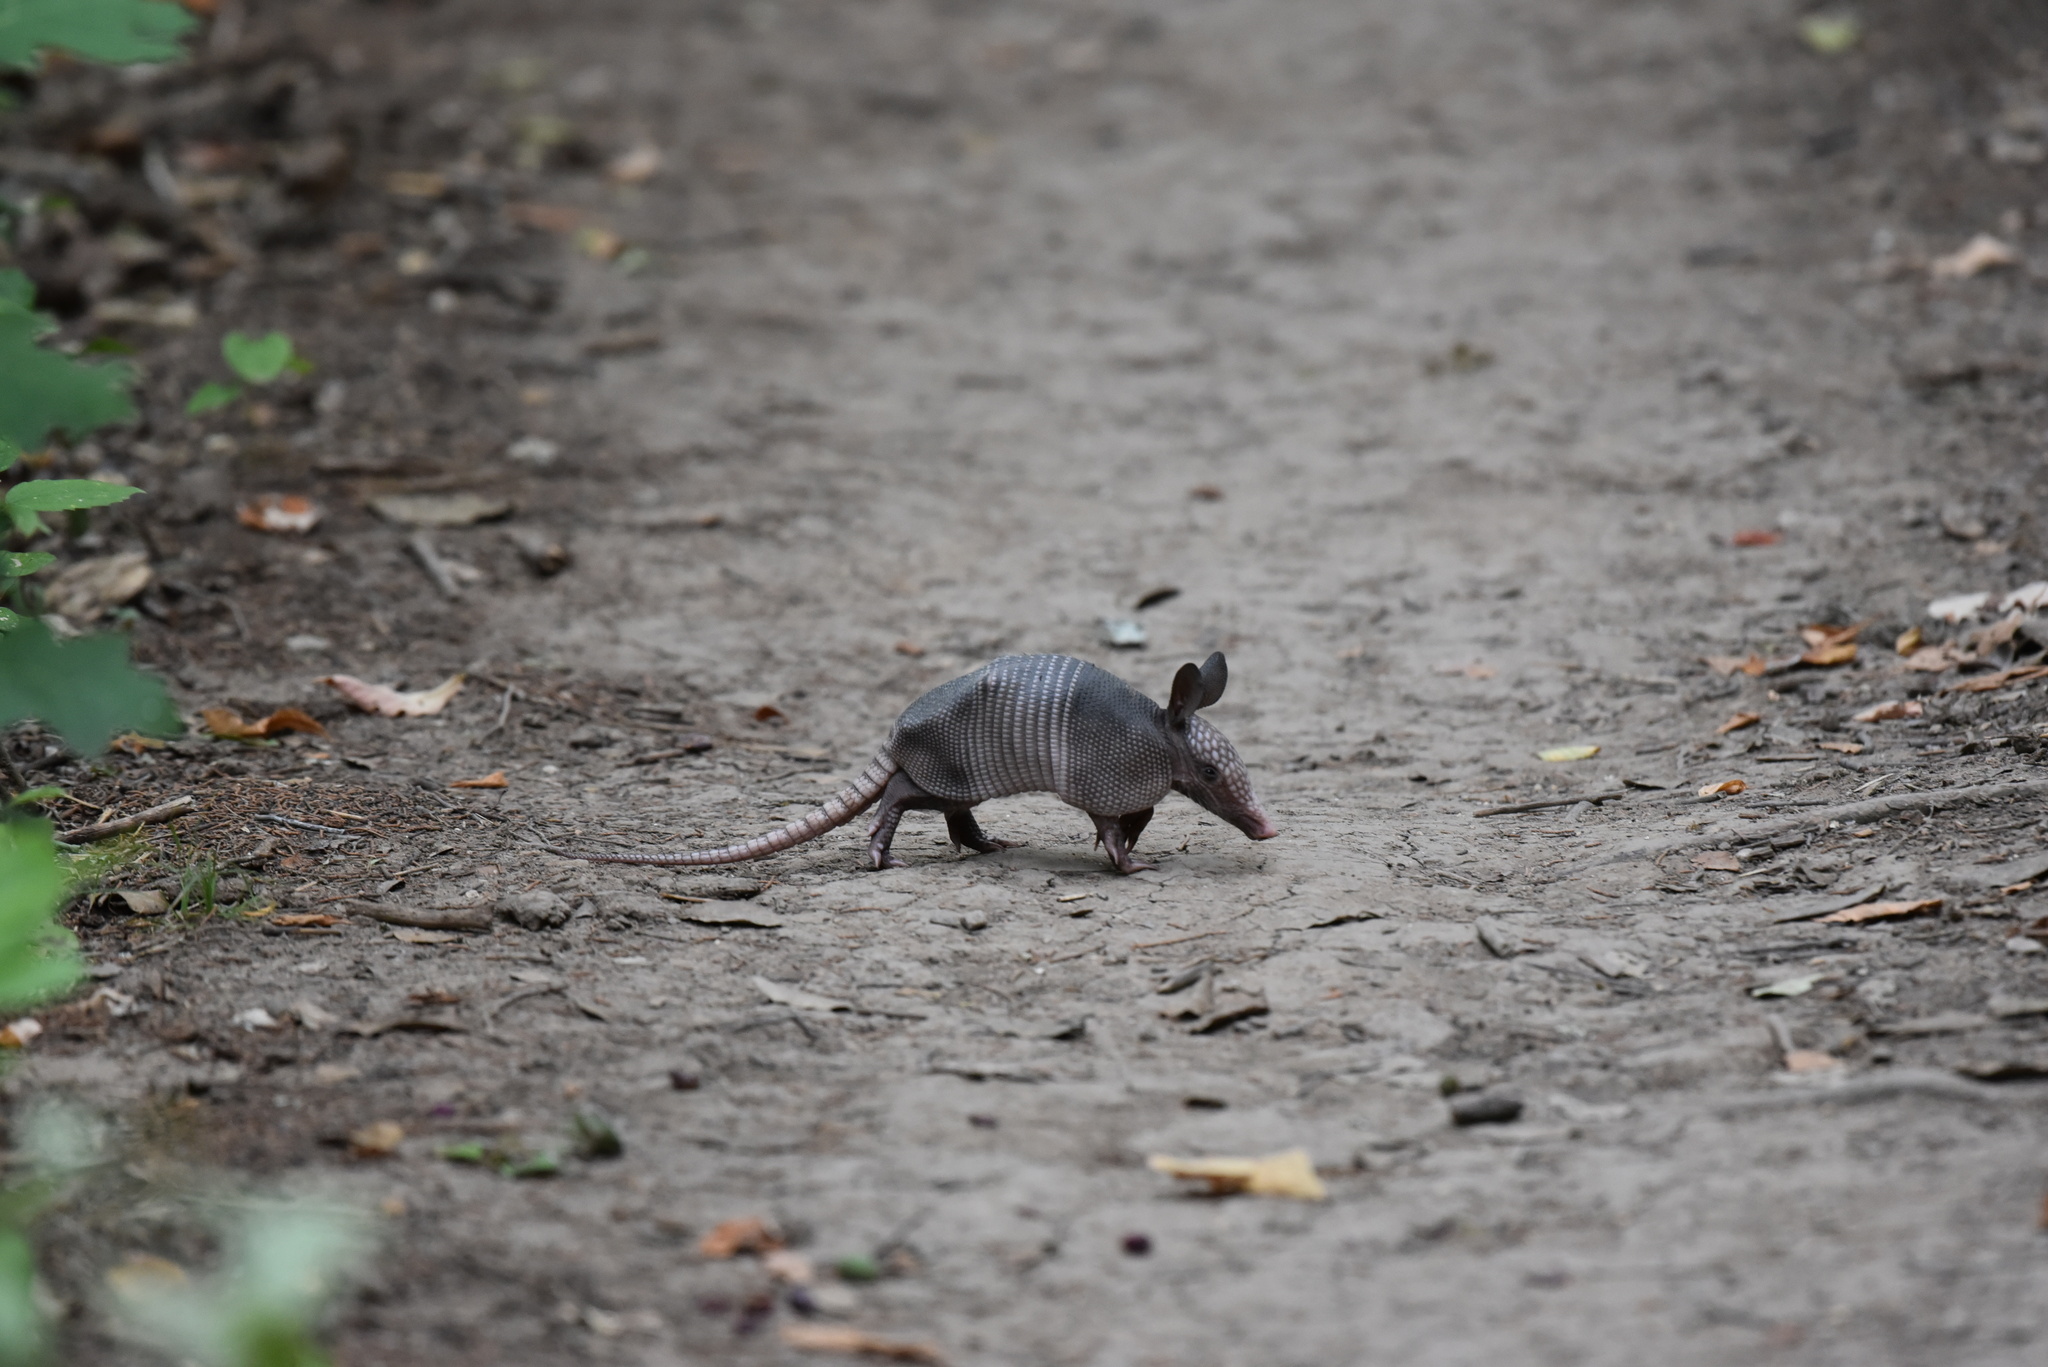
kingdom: Animalia
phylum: Chordata
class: Mammalia
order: Cingulata
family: Dasypodidae
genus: Dasypus
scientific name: Dasypus novemcinctus
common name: Nine-banded armadillo
